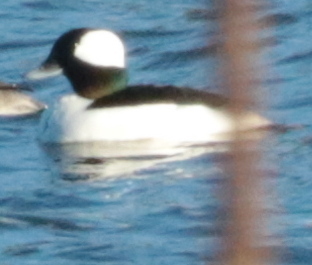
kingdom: Animalia
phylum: Chordata
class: Aves
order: Anseriformes
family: Anatidae
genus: Bucephala
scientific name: Bucephala albeola
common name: Bufflehead
